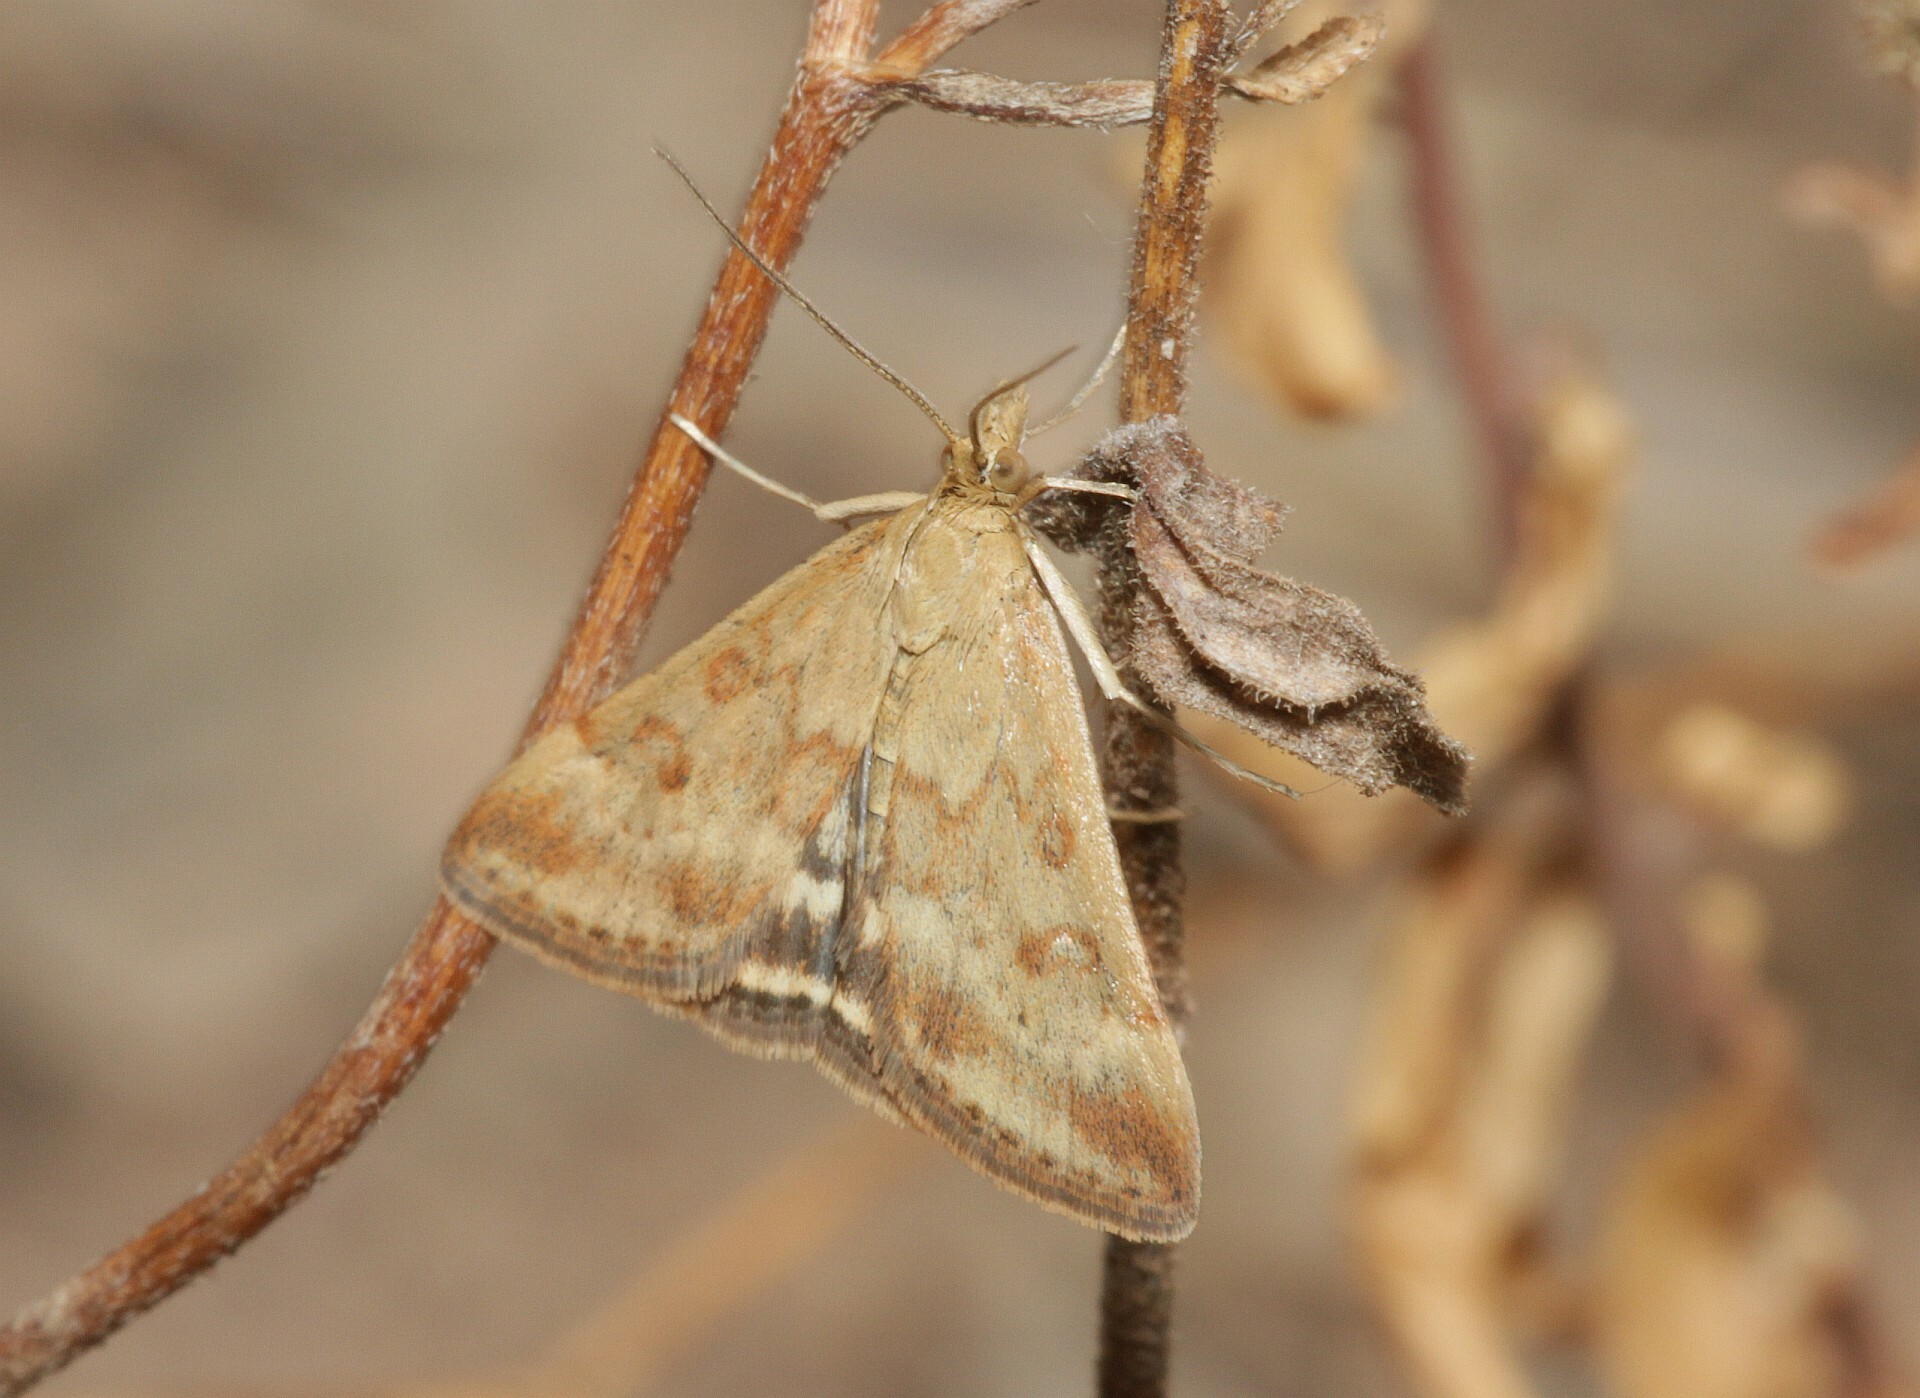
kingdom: Animalia
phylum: Arthropoda
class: Insecta
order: Lepidoptera
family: Crambidae
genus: Pyrausta
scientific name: Pyrausta despicata
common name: Straw-barred pearl
